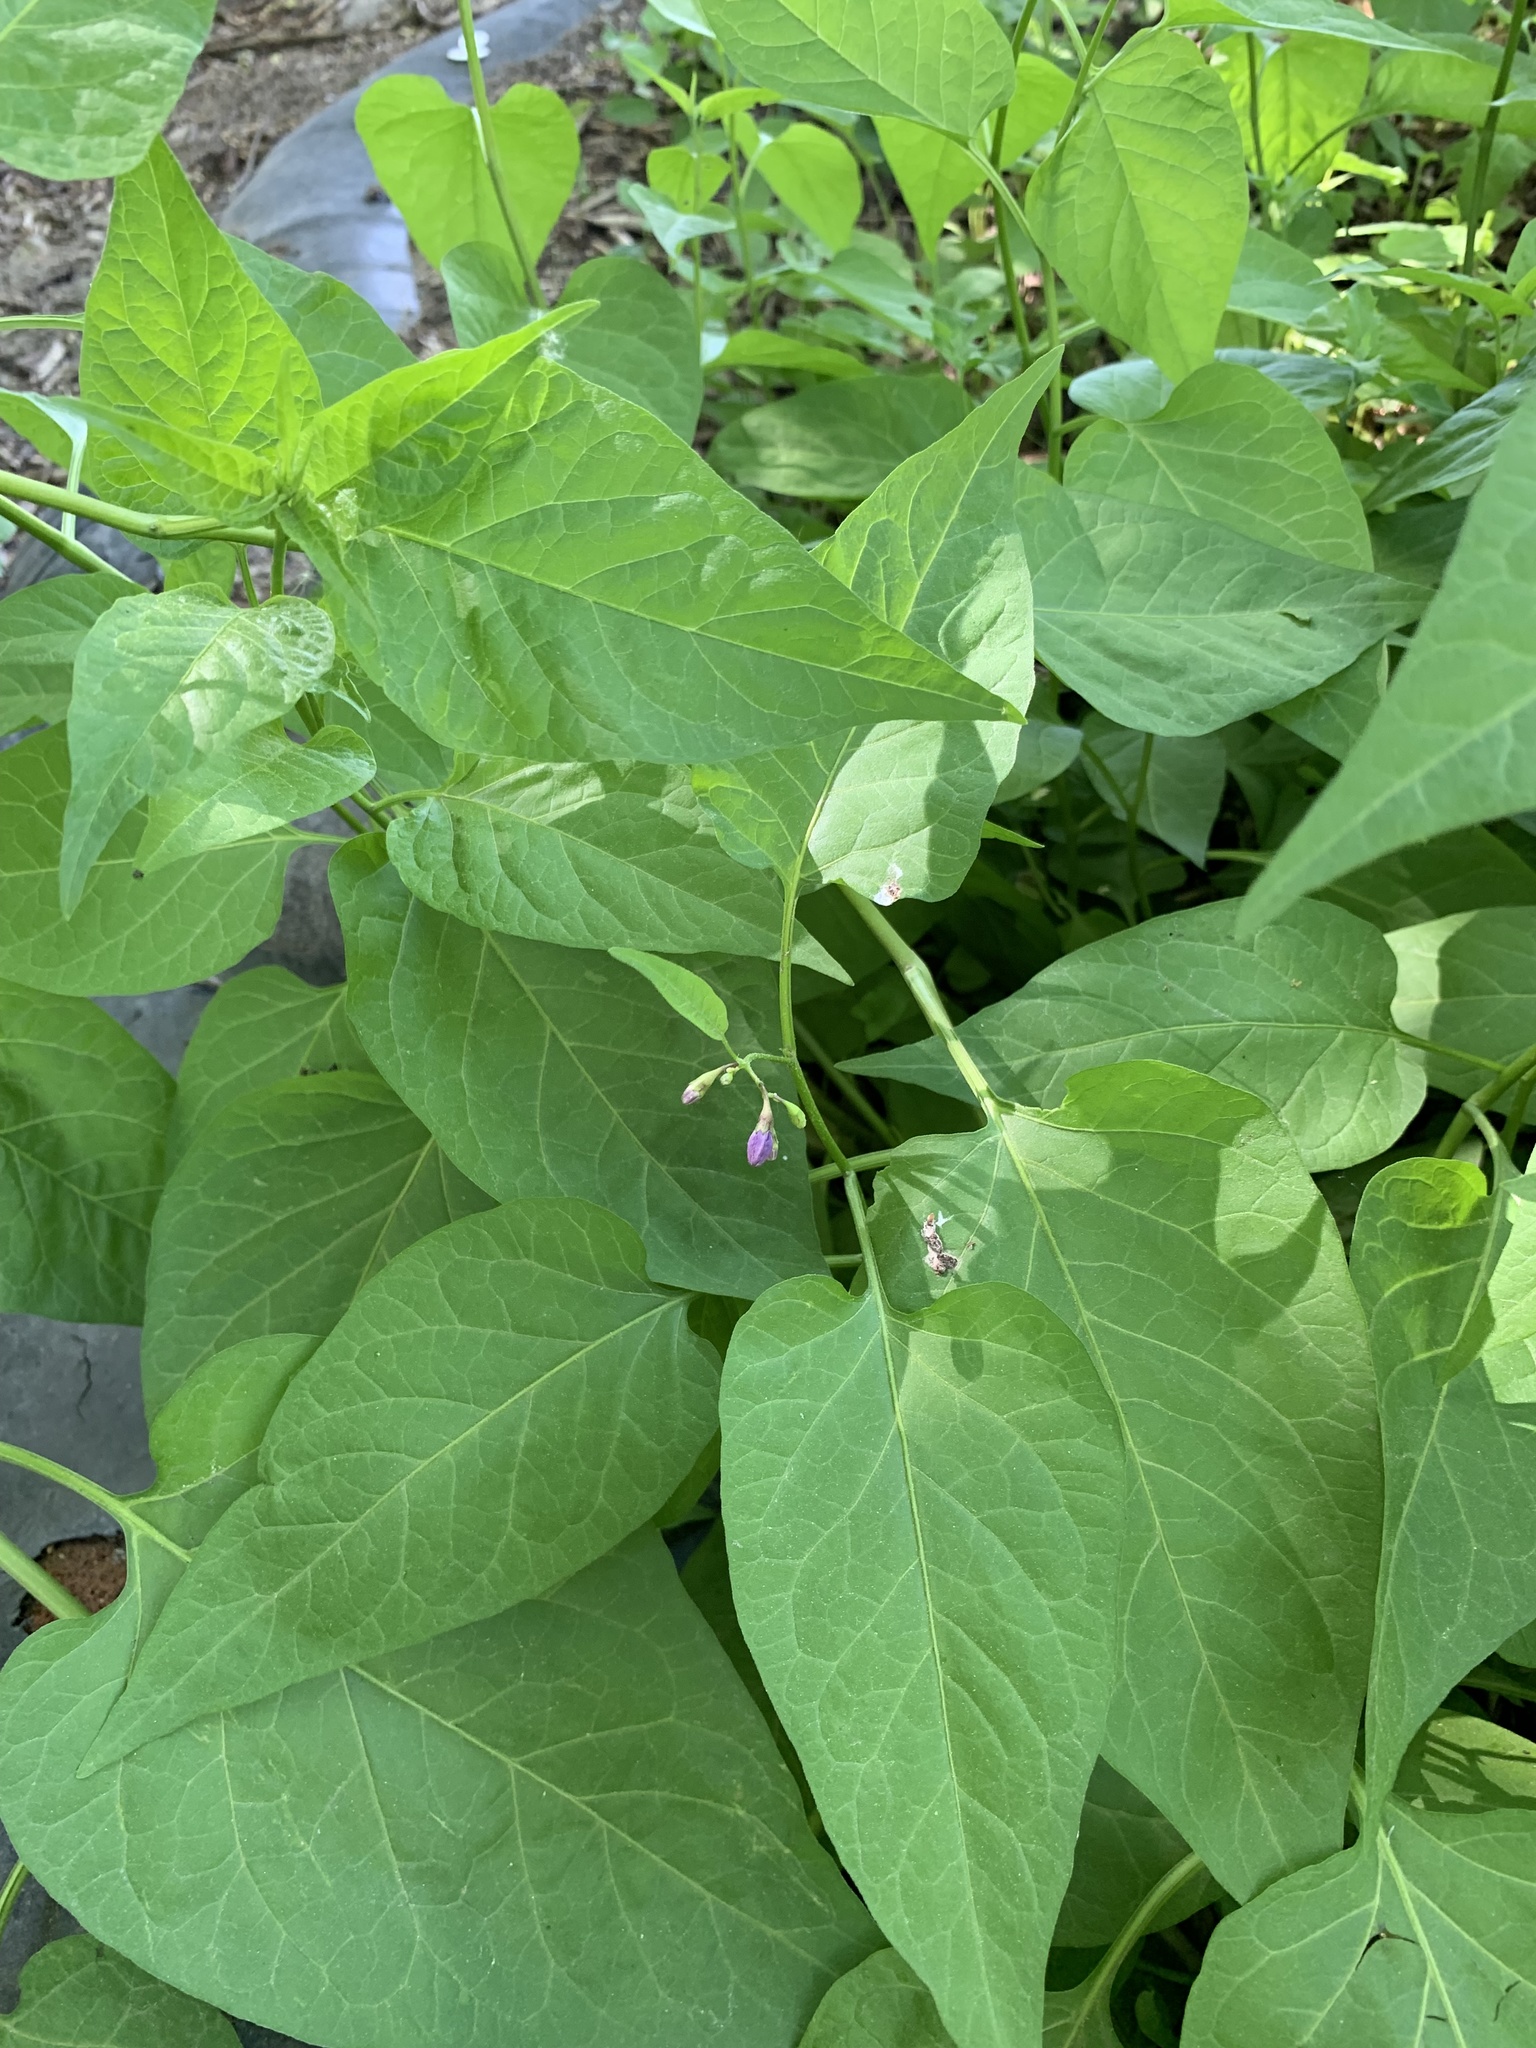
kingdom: Plantae
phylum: Tracheophyta
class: Magnoliopsida
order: Solanales
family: Solanaceae
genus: Solanum
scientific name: Solanum dulcamara
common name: Climbing nightshade
